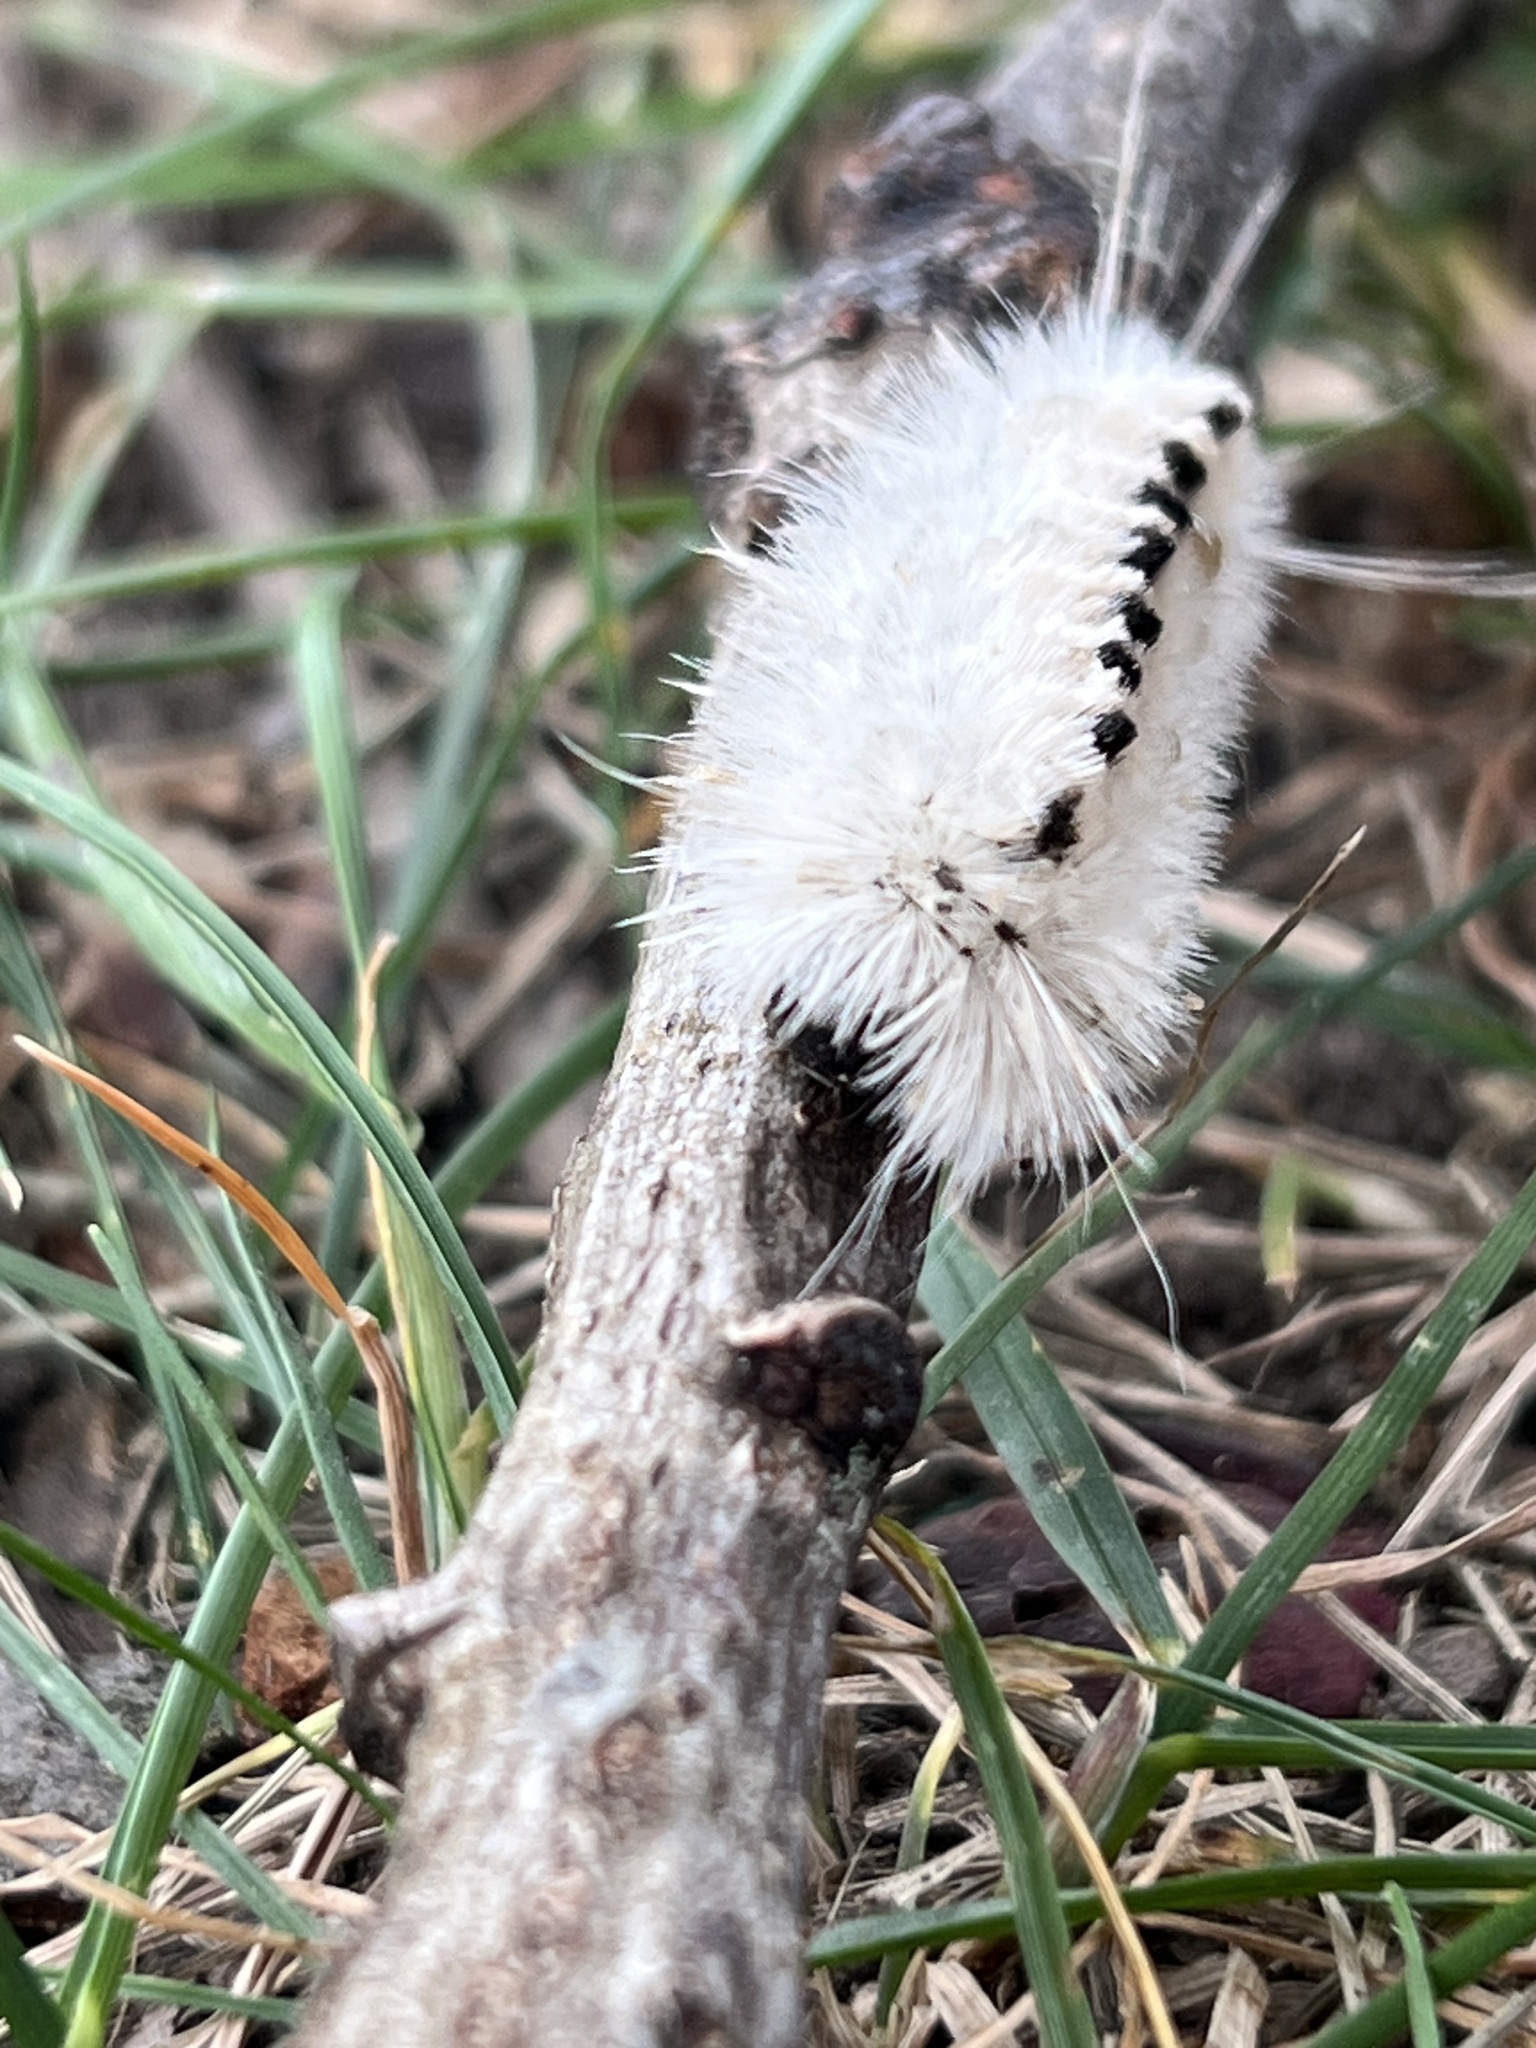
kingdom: Animalia
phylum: Arthropoda
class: Insecta
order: Lepidoptera
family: Erebidae
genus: Lophocampa
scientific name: Lophocampa caryae
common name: Hickory tussock moth
